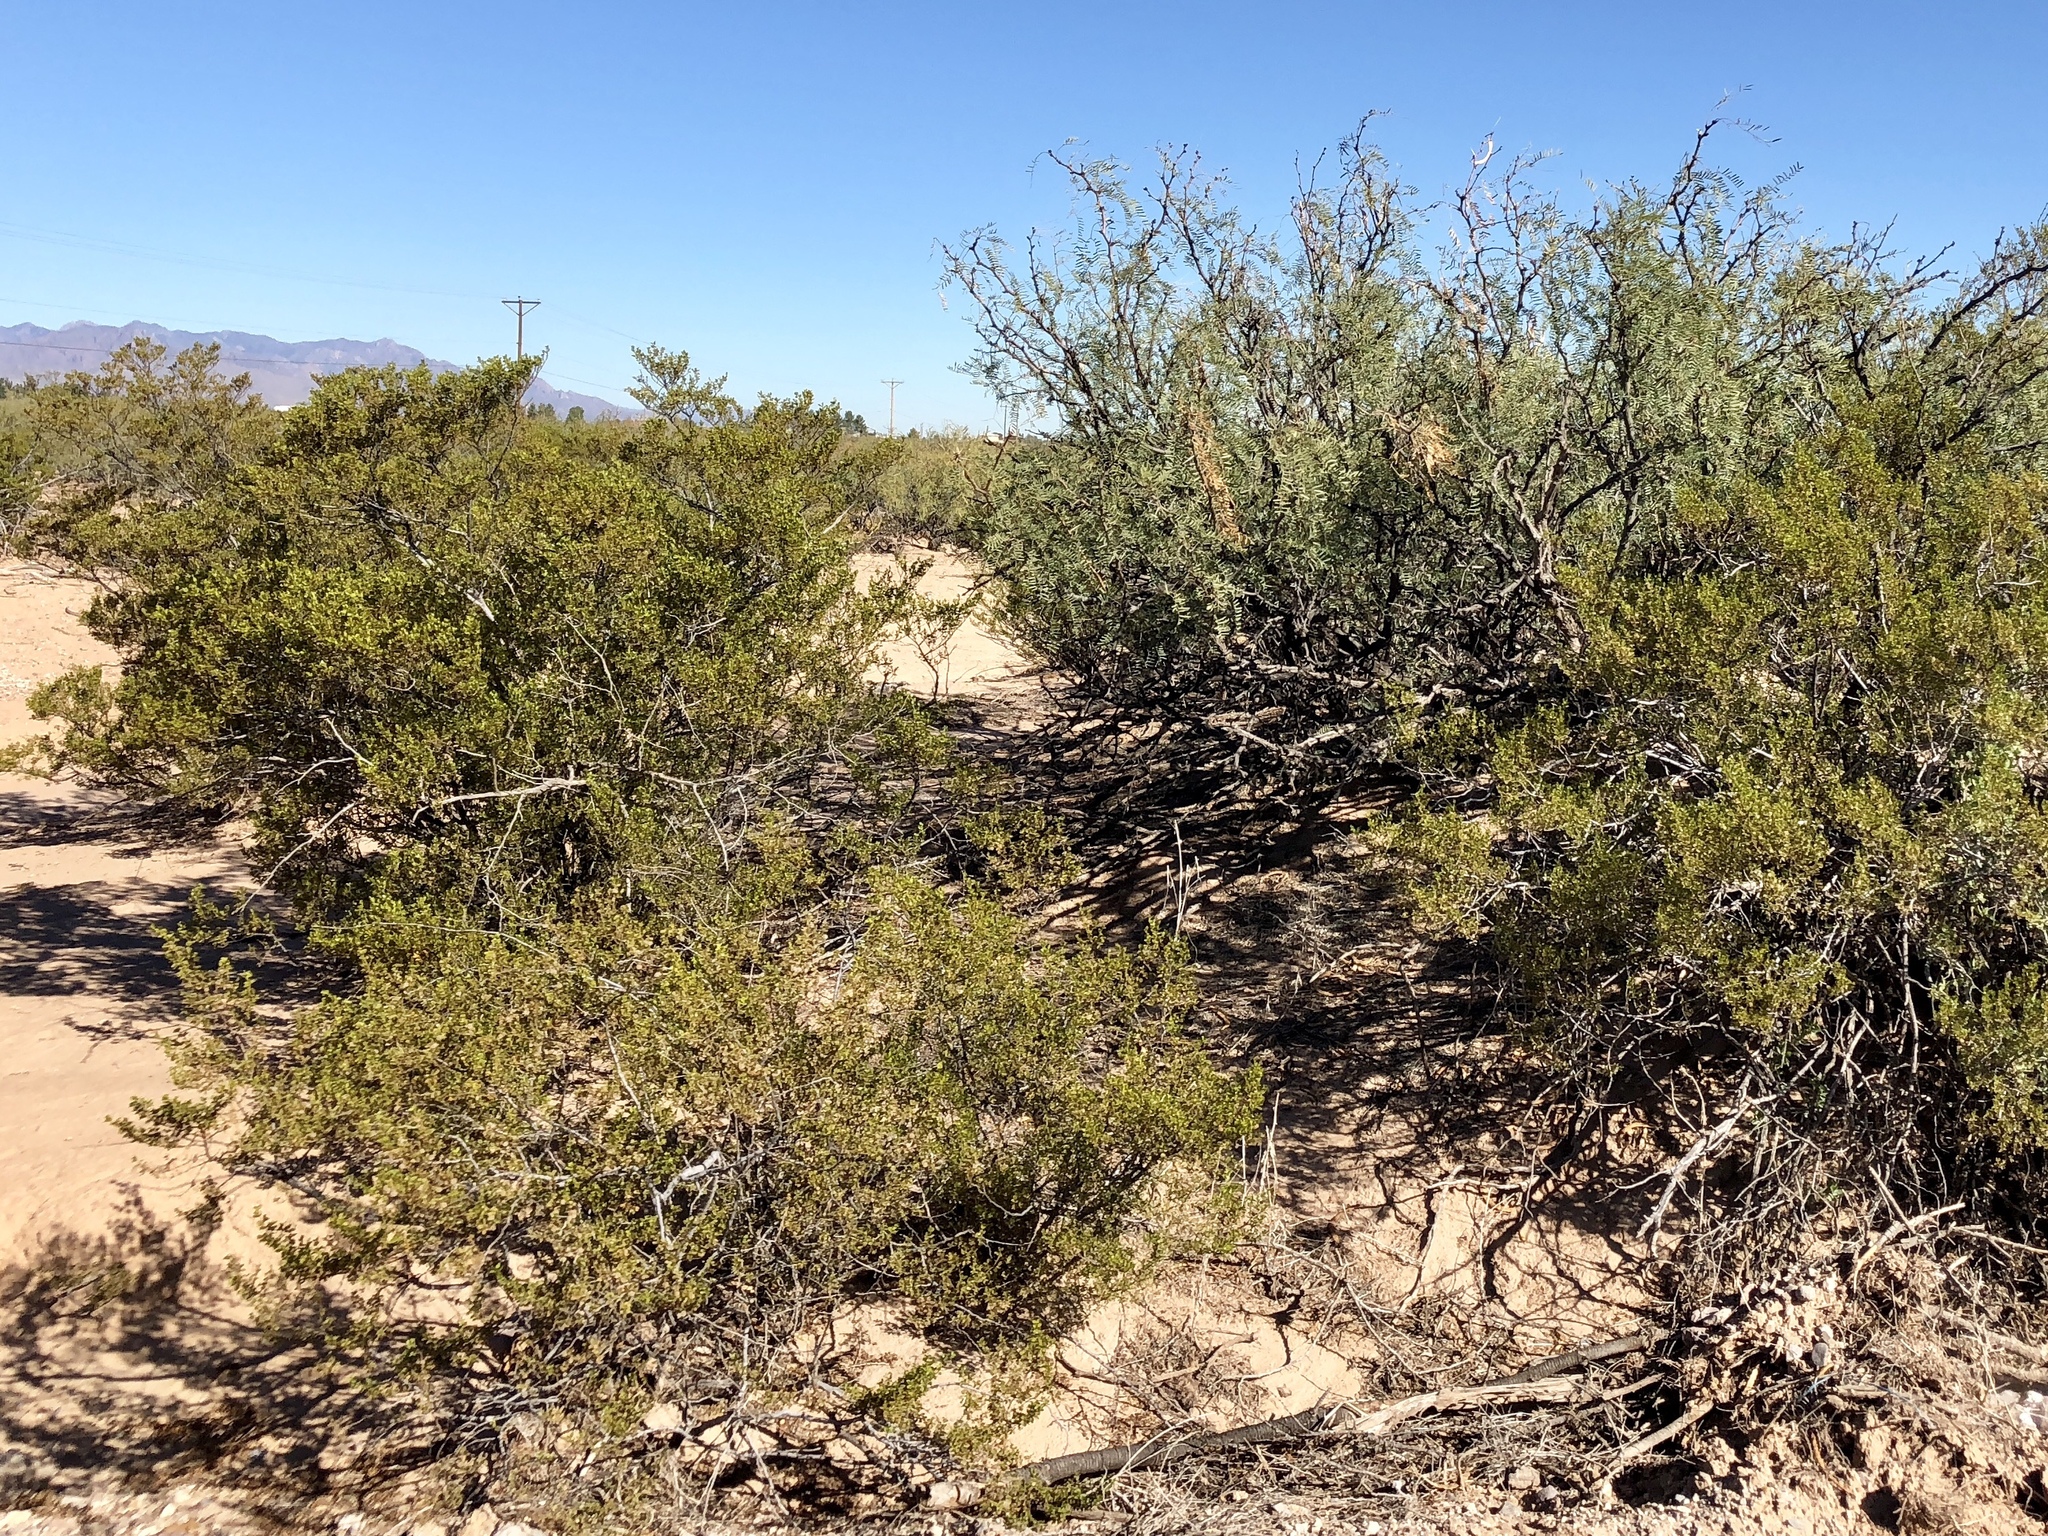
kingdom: Plantae
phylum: Tracheophyta
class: Magnoliopsida
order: Zygophyllales
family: Zygophyllaceae
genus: Larrea
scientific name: Larrea tridentata
